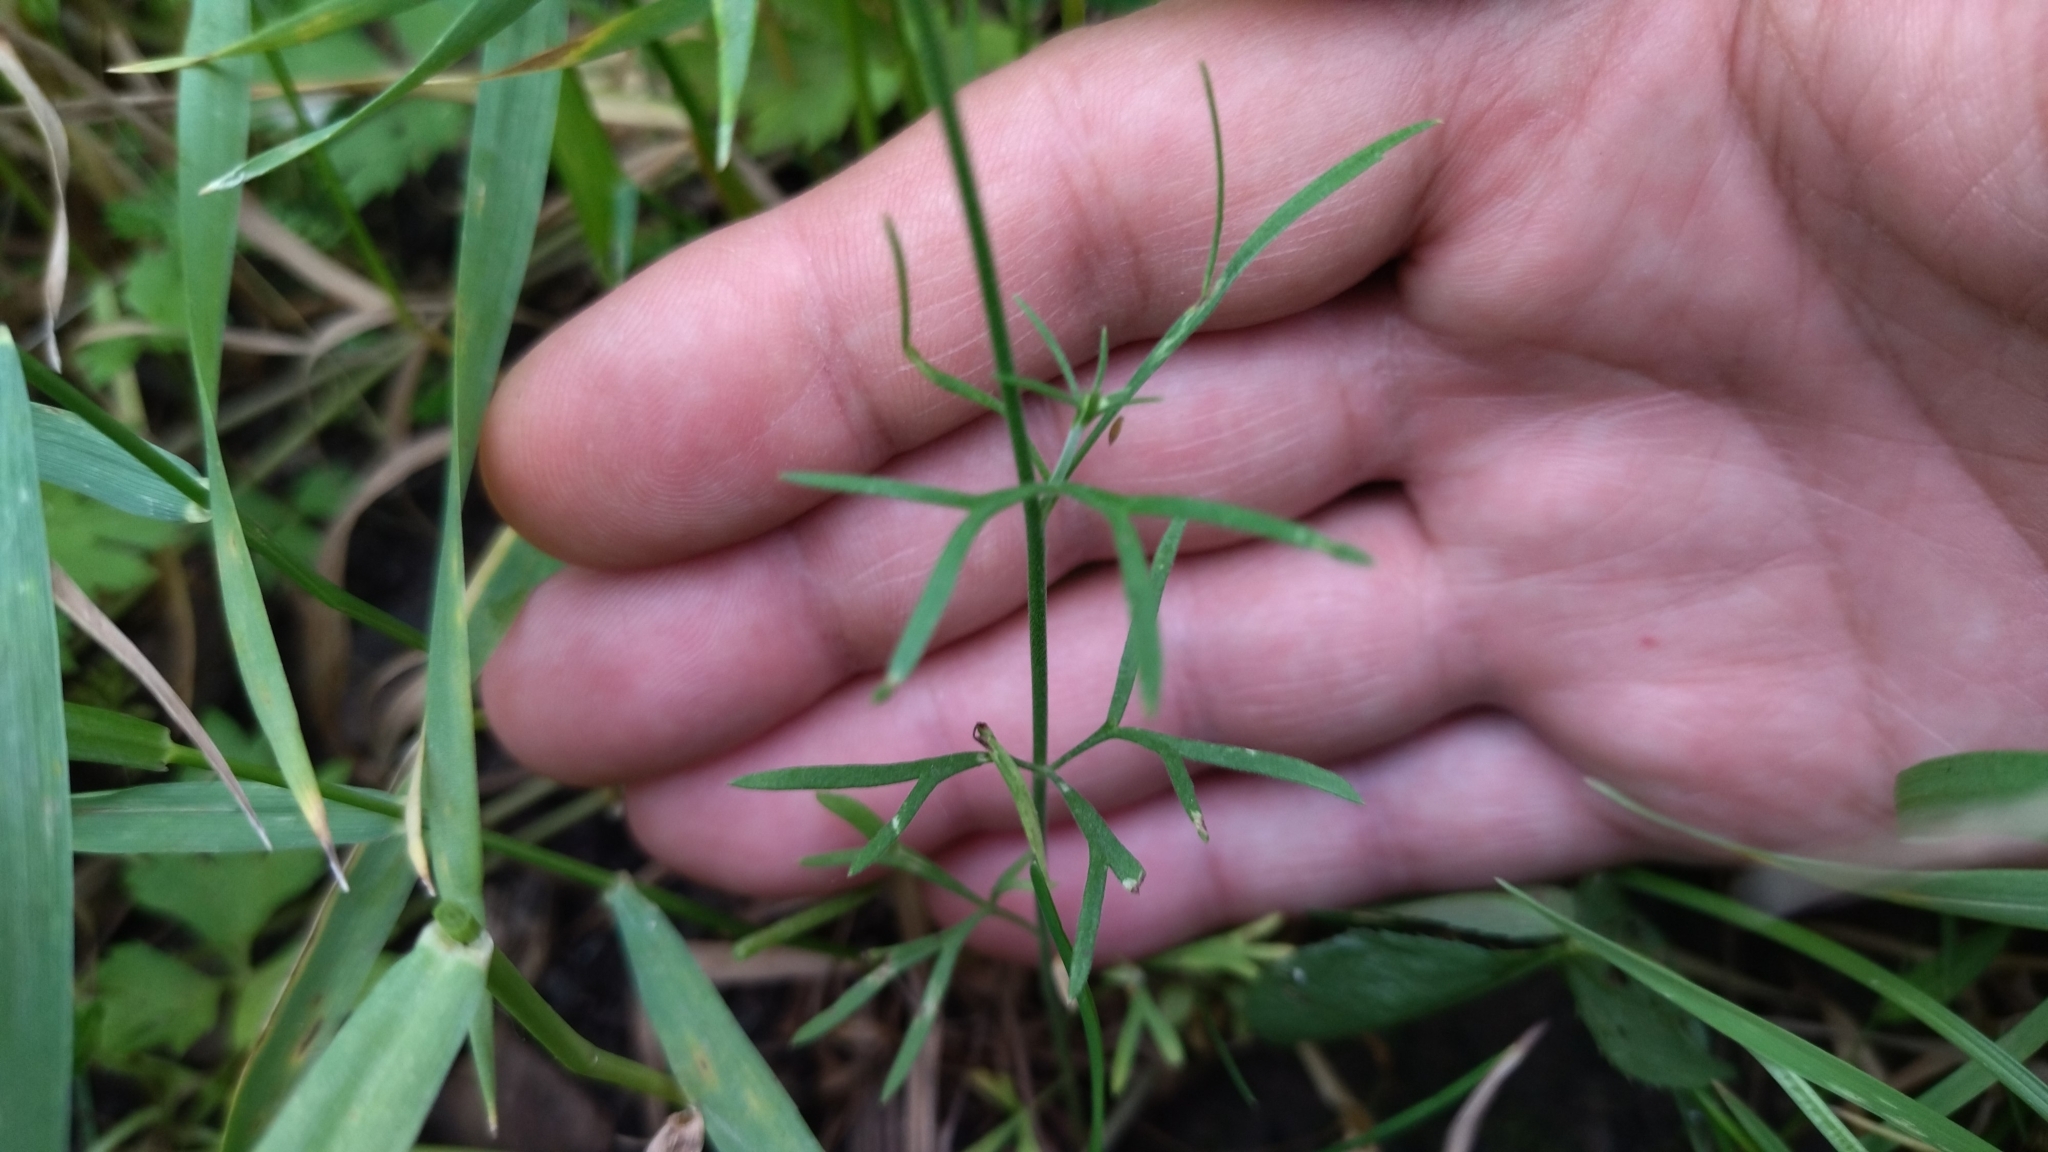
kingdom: Plantae
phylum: Tracheophyta
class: Magnoliopsida
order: Ranunculales
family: Ranunculaceae
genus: Delphinium
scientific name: Delphinium consolida
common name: Branching larkspur
